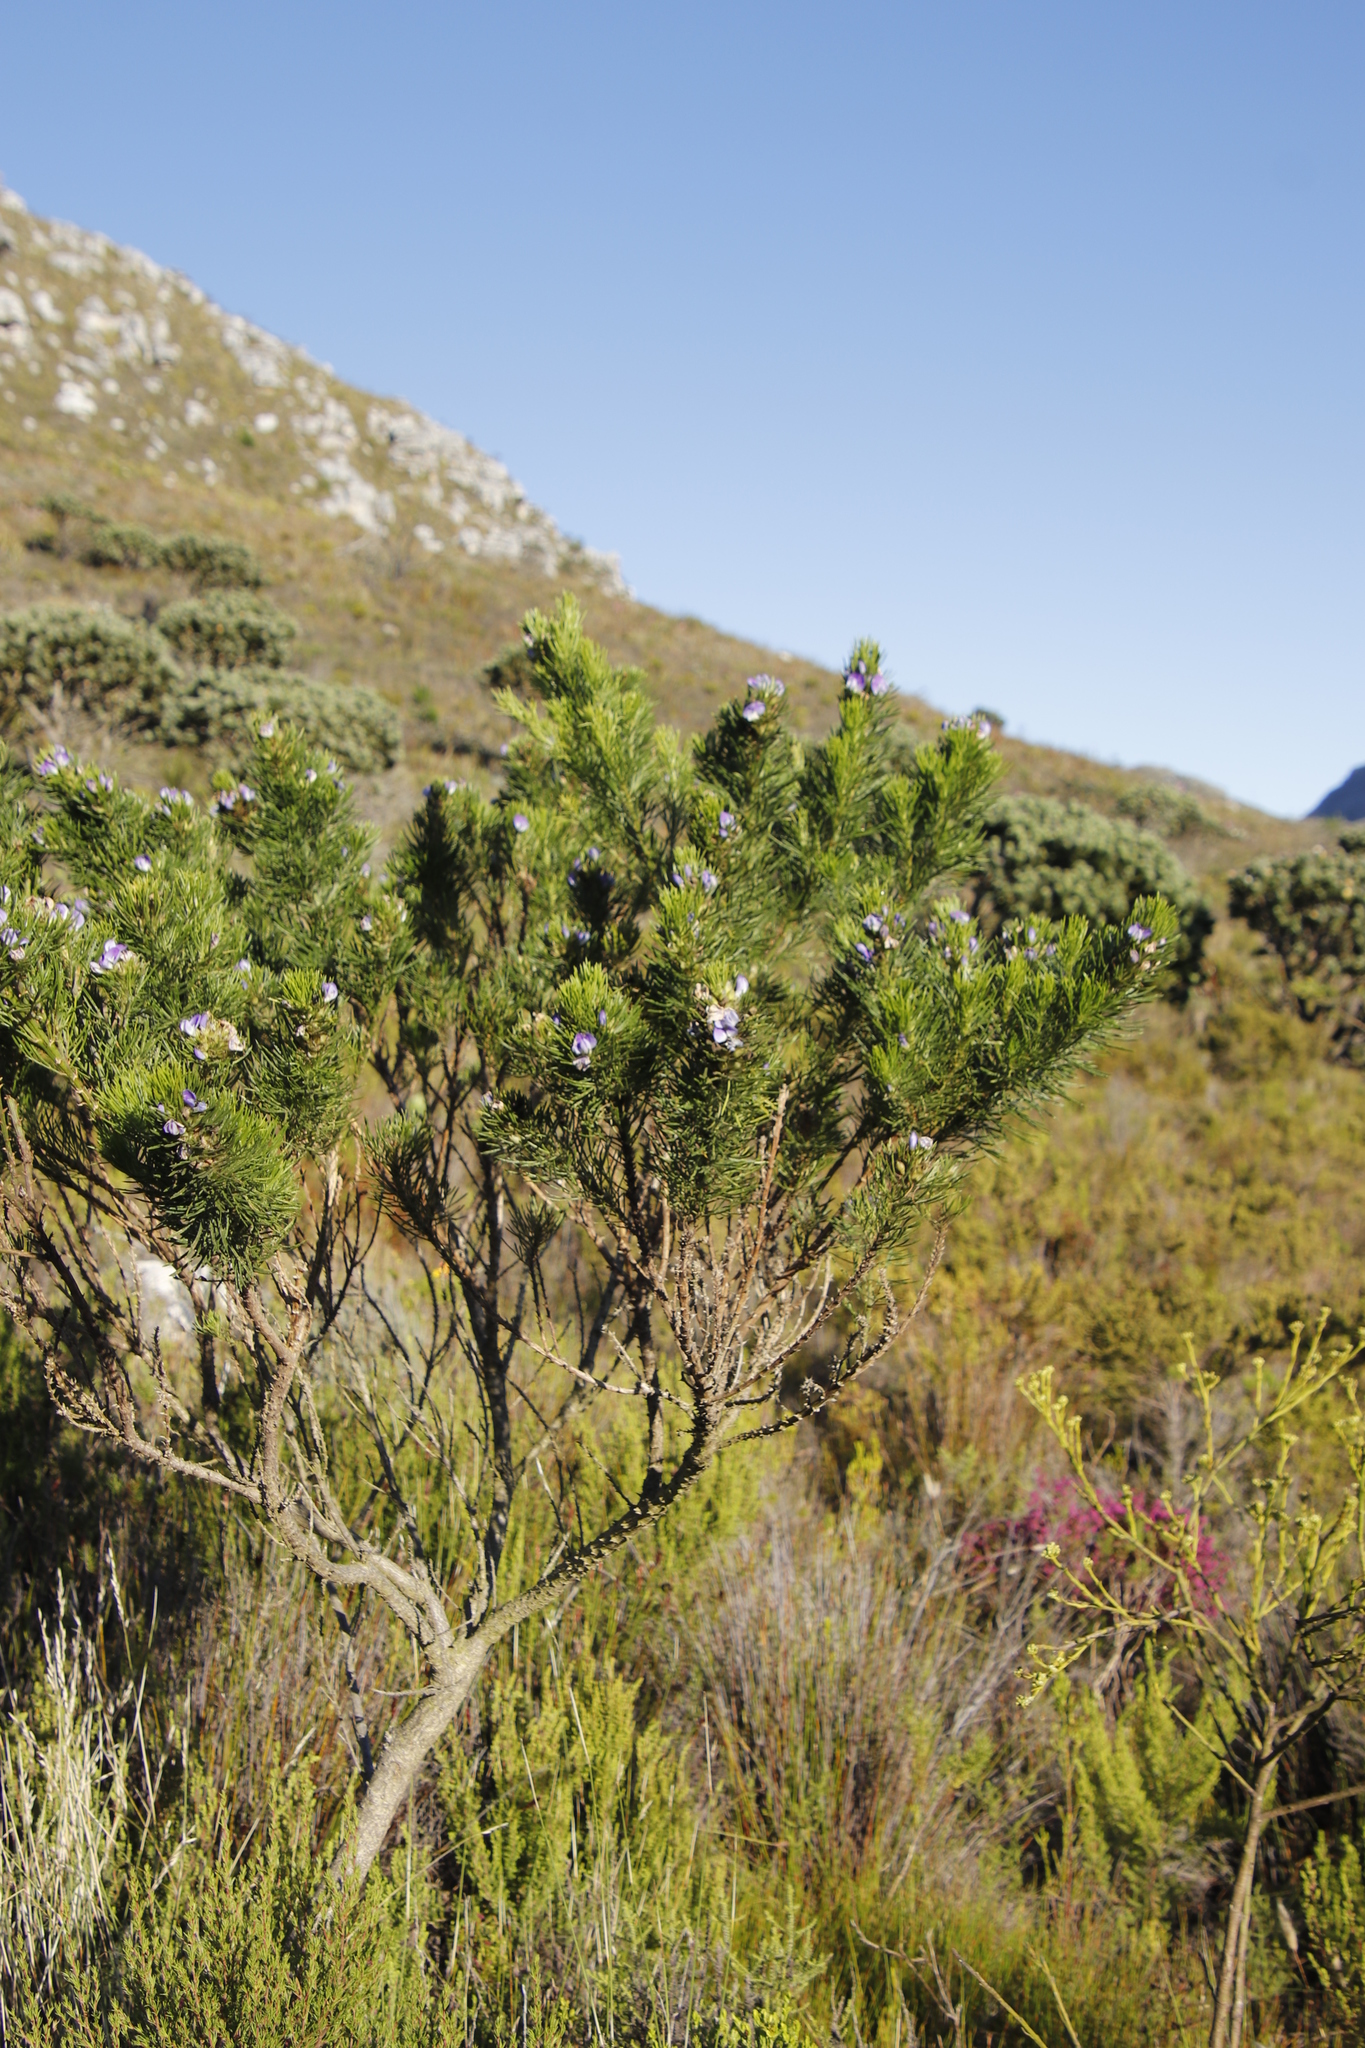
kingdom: Plantae
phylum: Tracheophyta
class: Magnoliopsida
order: Fabales
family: Fabaceae
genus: Psoralea
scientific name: Psoralea pinnata
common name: African scurfpea
